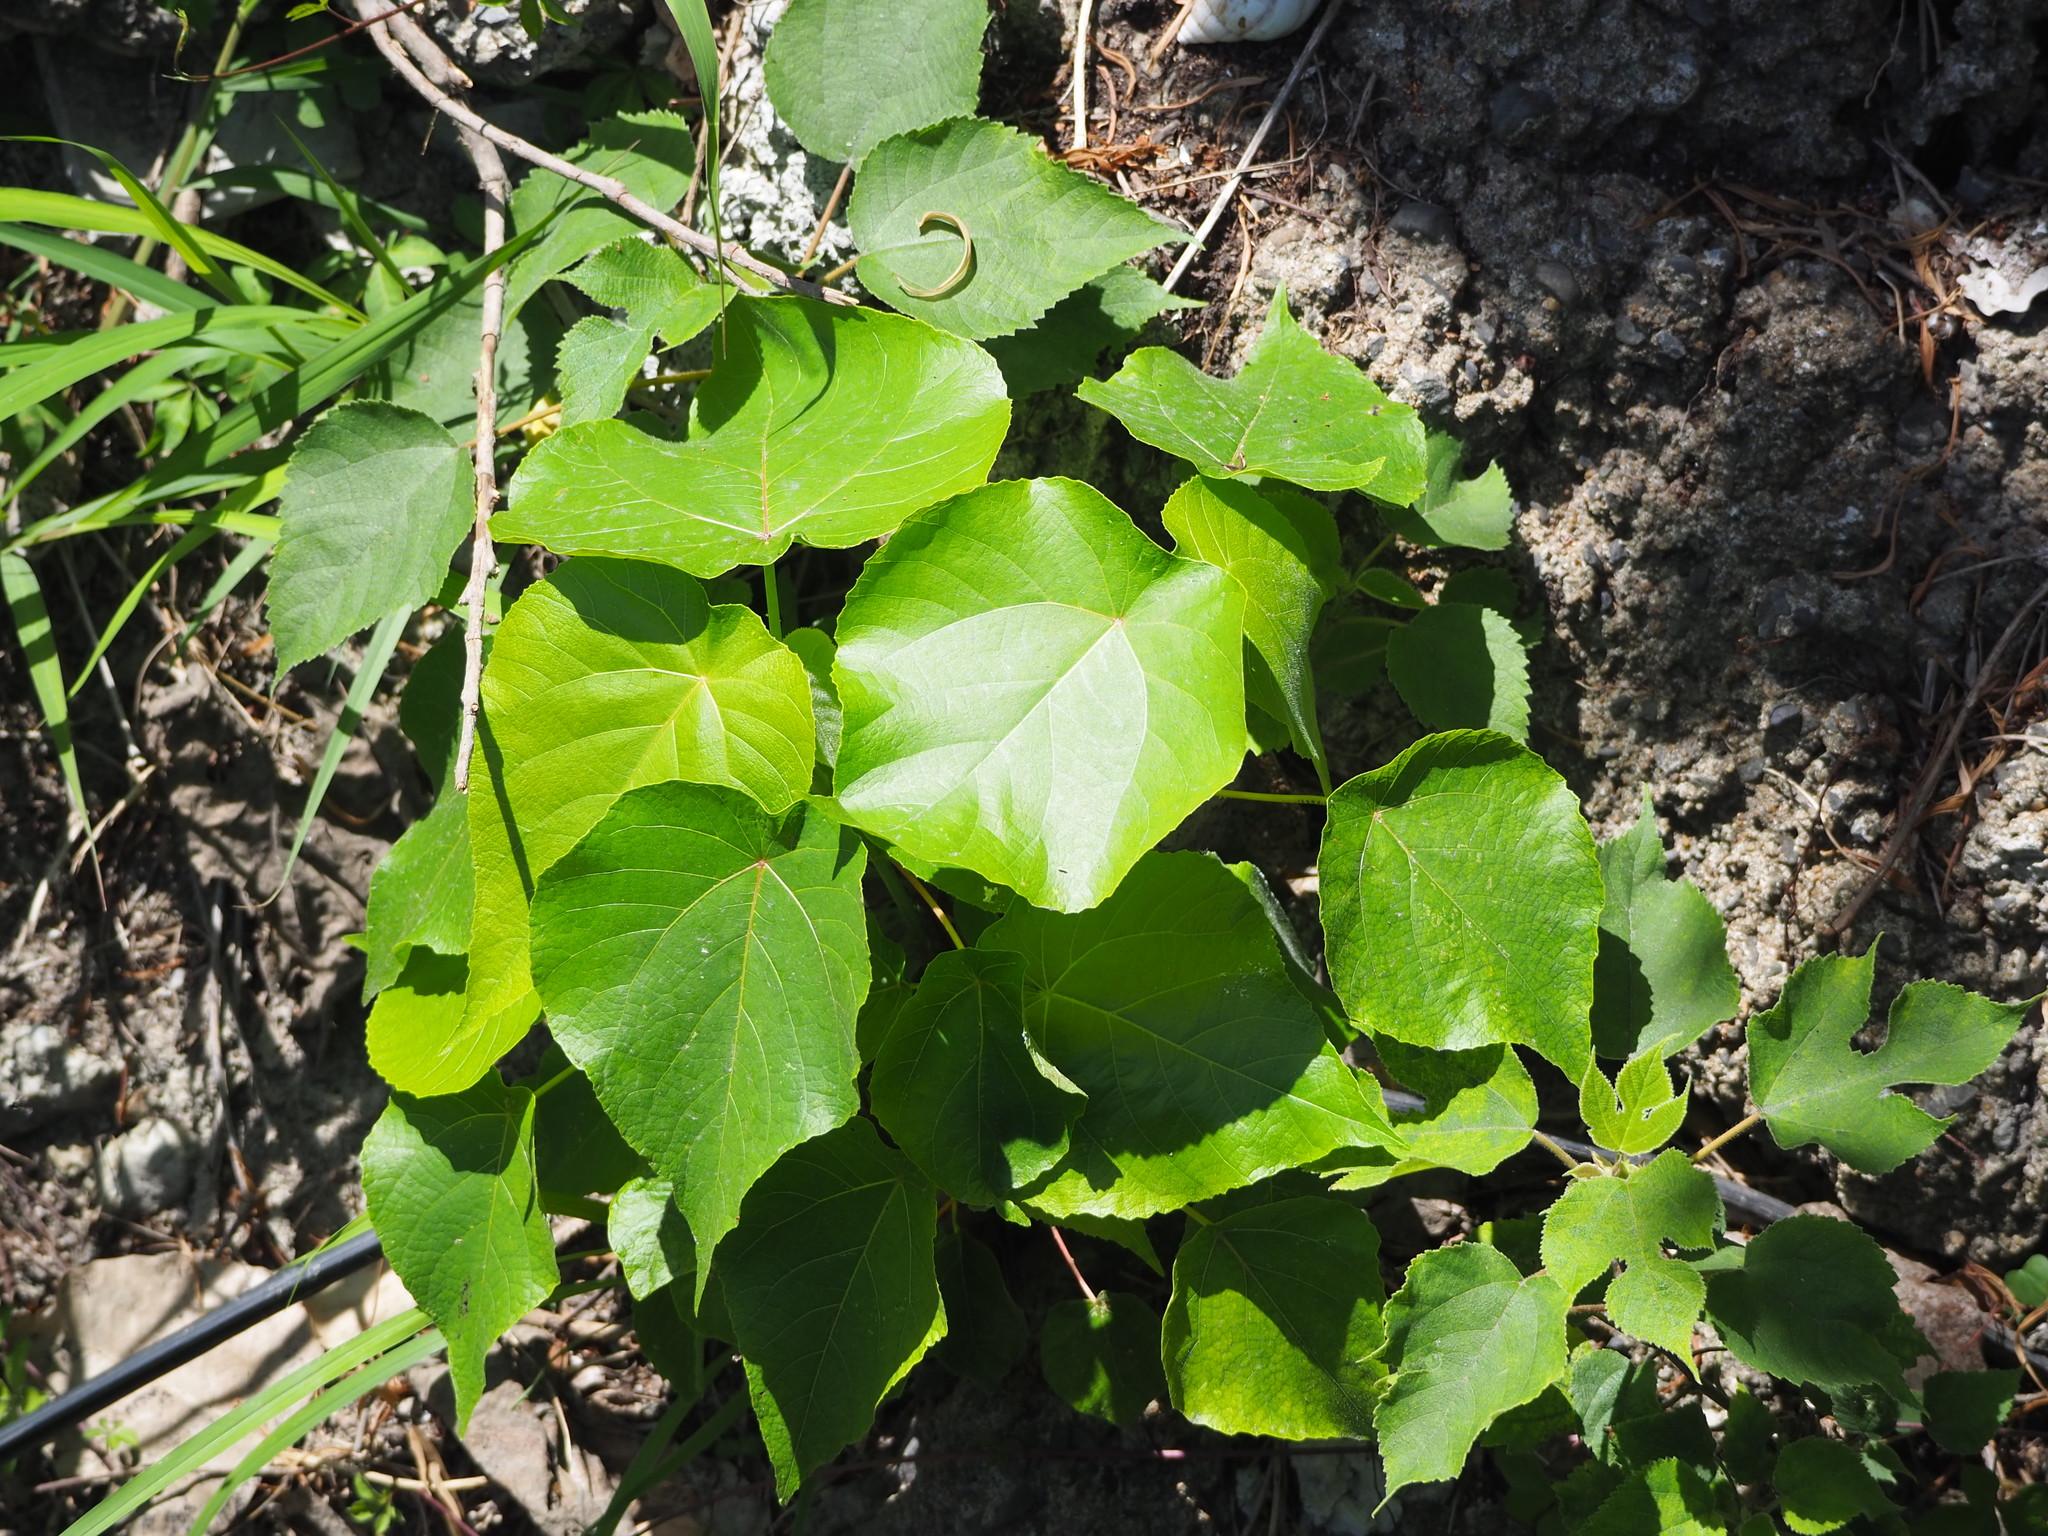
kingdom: Plantae
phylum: Tracheophyta
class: Magnoliopsida
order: Malpighiales
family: Euphorbiaceae
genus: Macaranga
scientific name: Macaranga tanarius
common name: Parasol leaf tree
